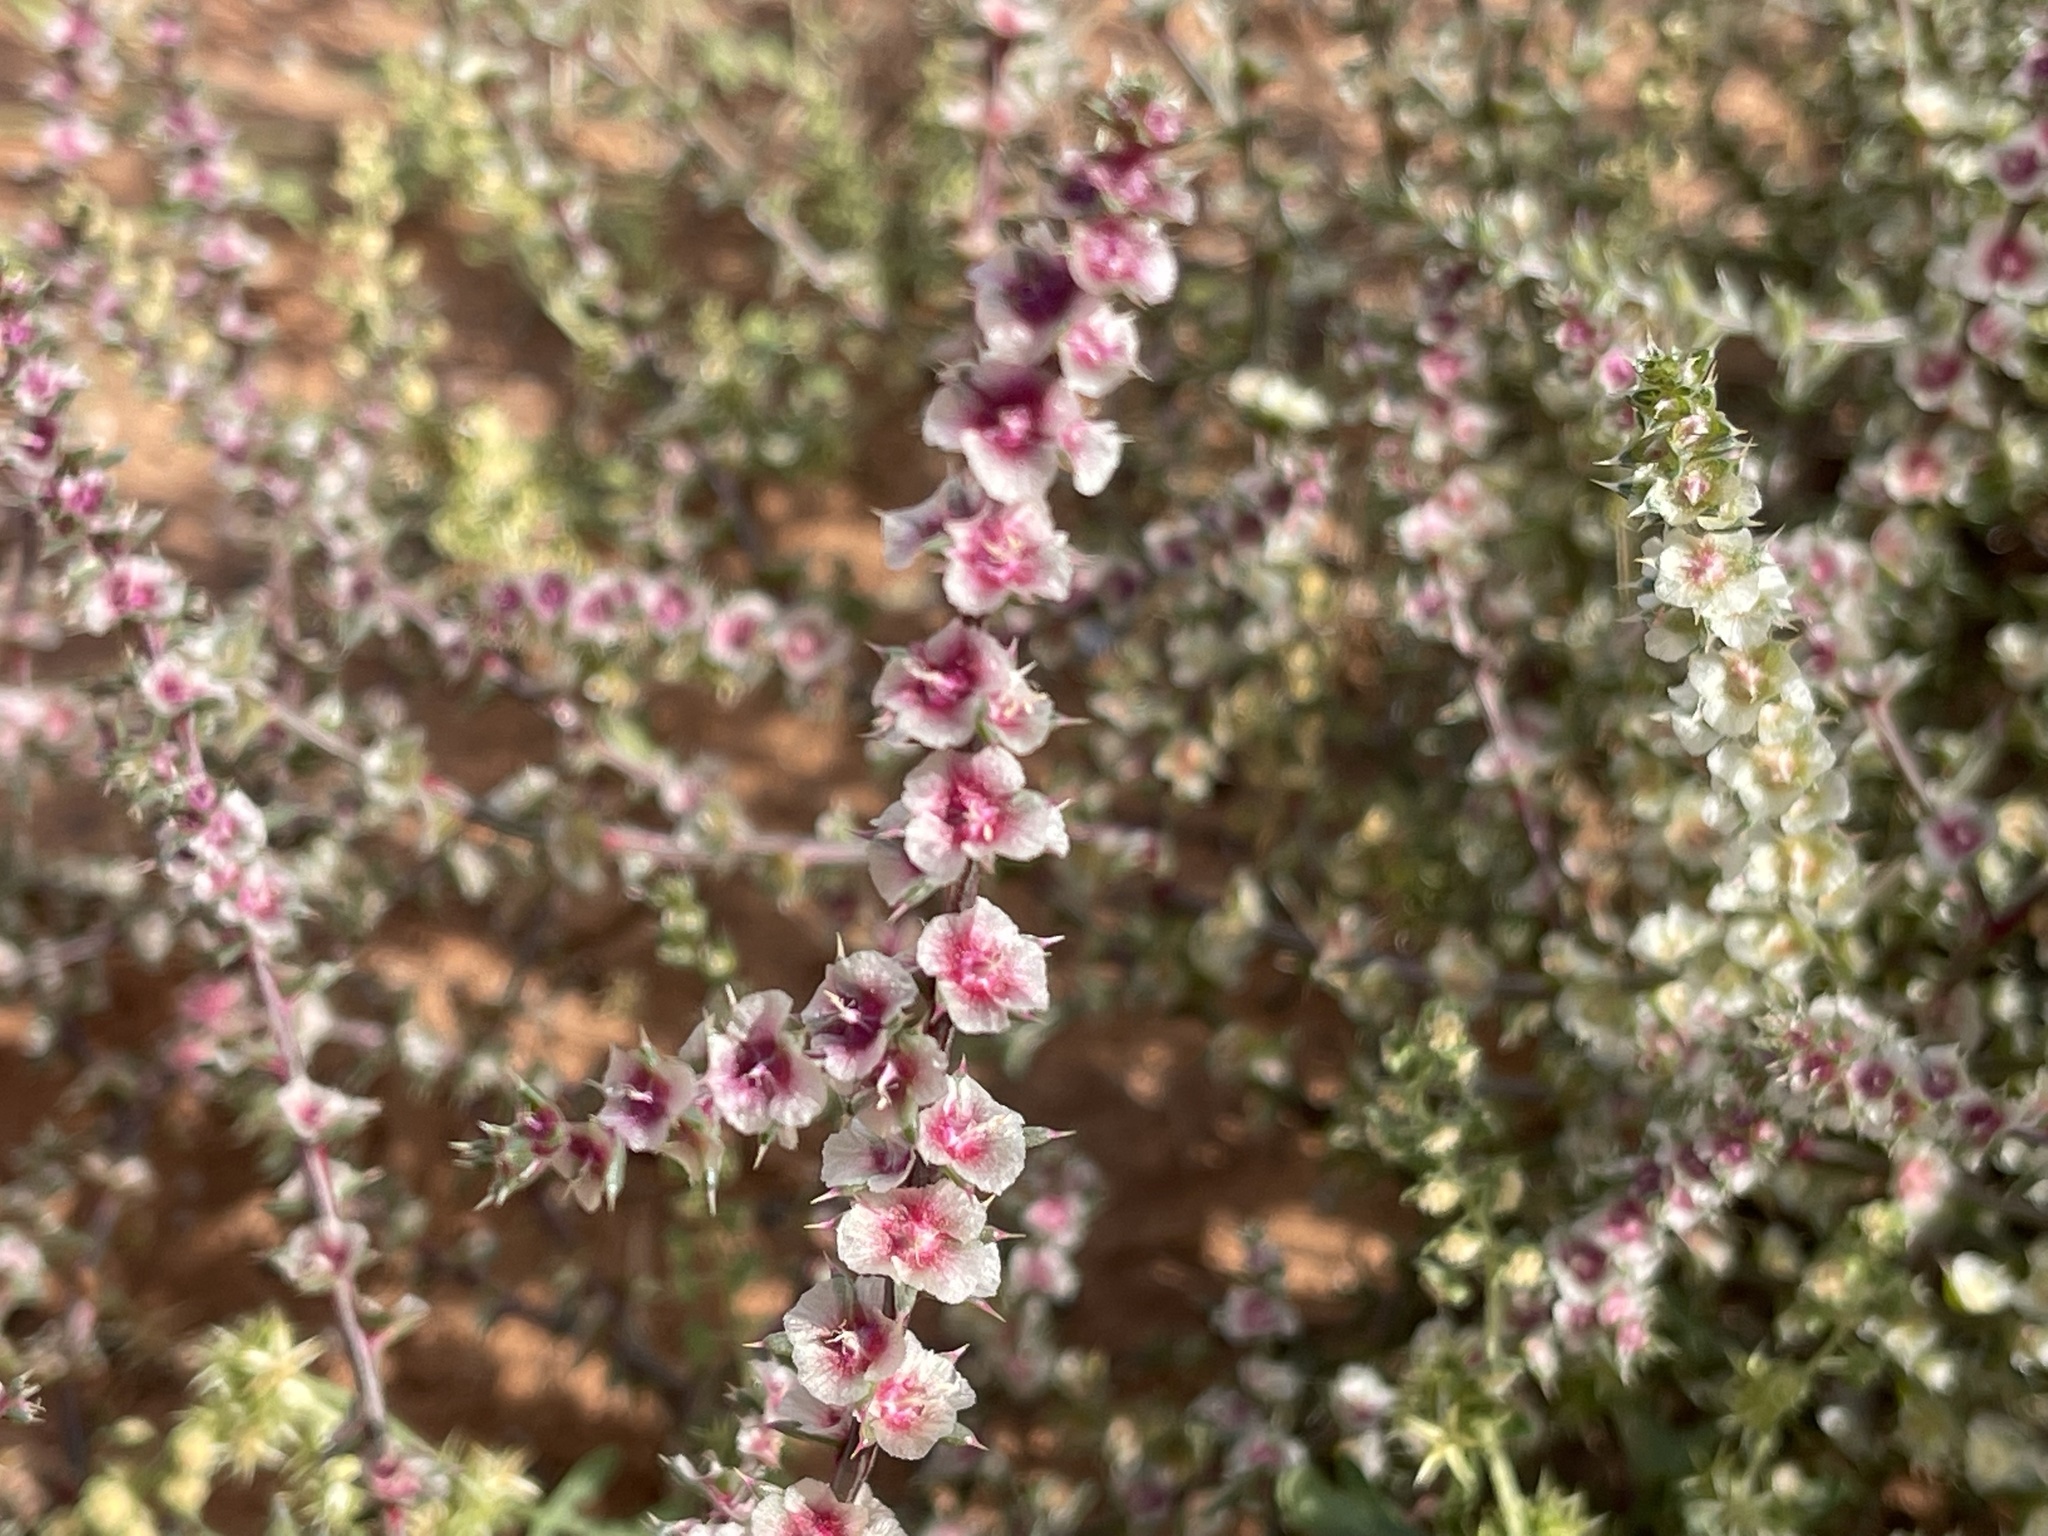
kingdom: Plantae
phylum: Tracheophyta
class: Magnoliopsida
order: Caryophyllales
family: Amaranthaceae
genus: Salsola
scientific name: Salsola tragus
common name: Prickly russian thistle
